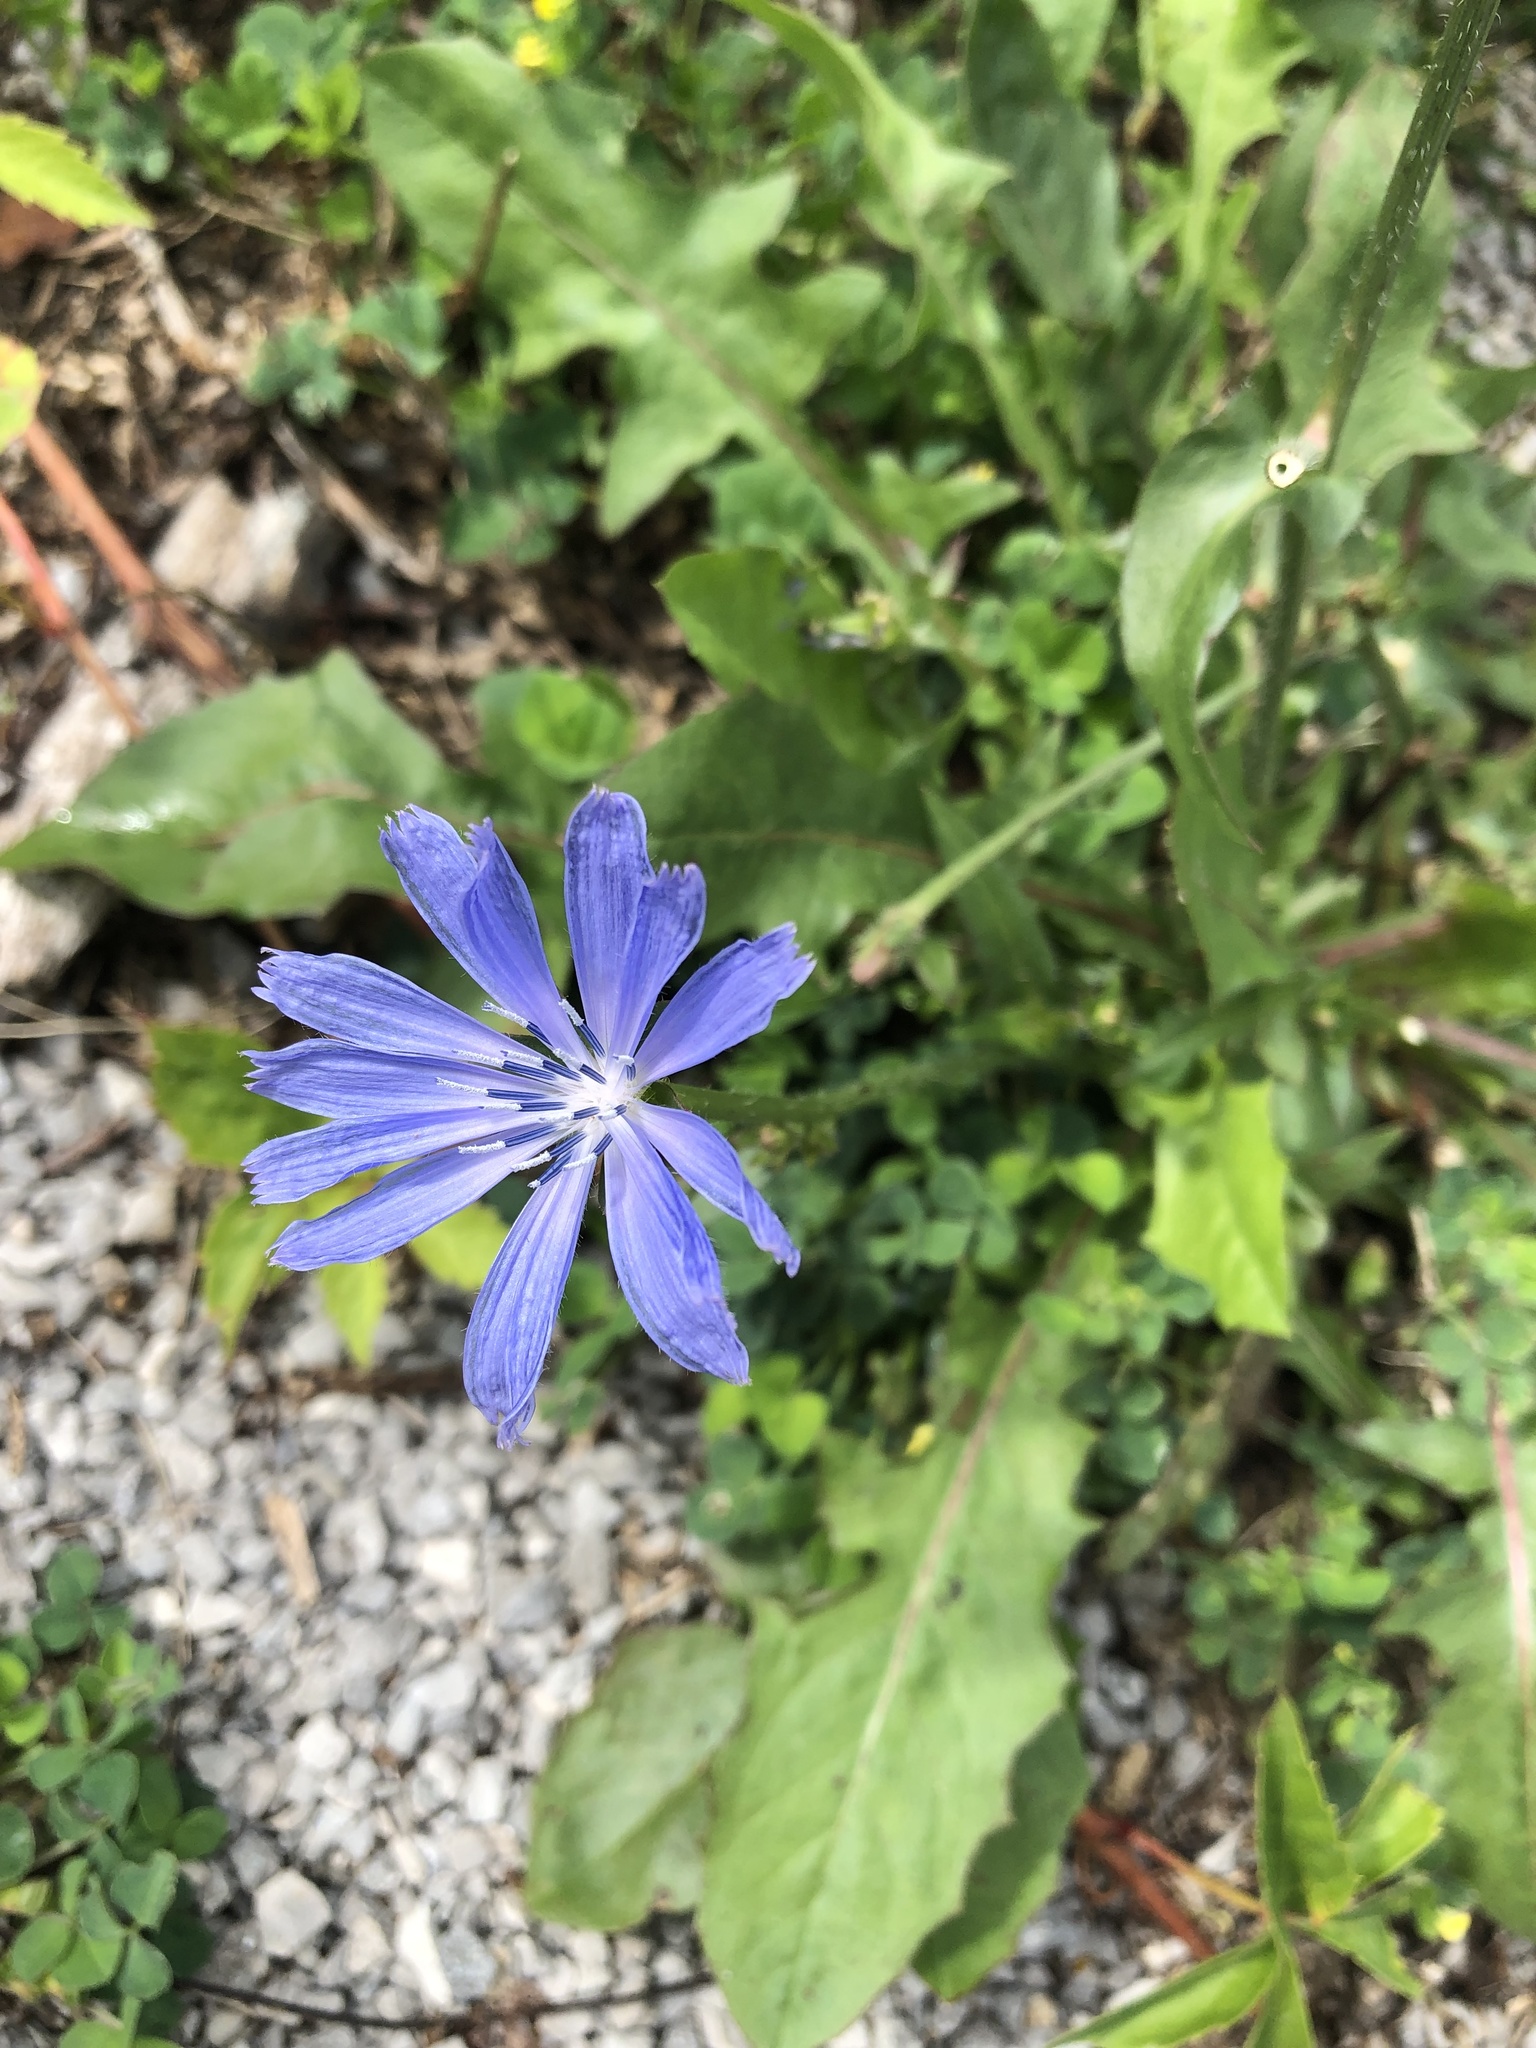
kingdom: Plantae
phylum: Tracheophyta
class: Magnoliopsida
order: Asterales
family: Asteraceae
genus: Cichorium
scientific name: Cichorium intybus
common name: Chicory
